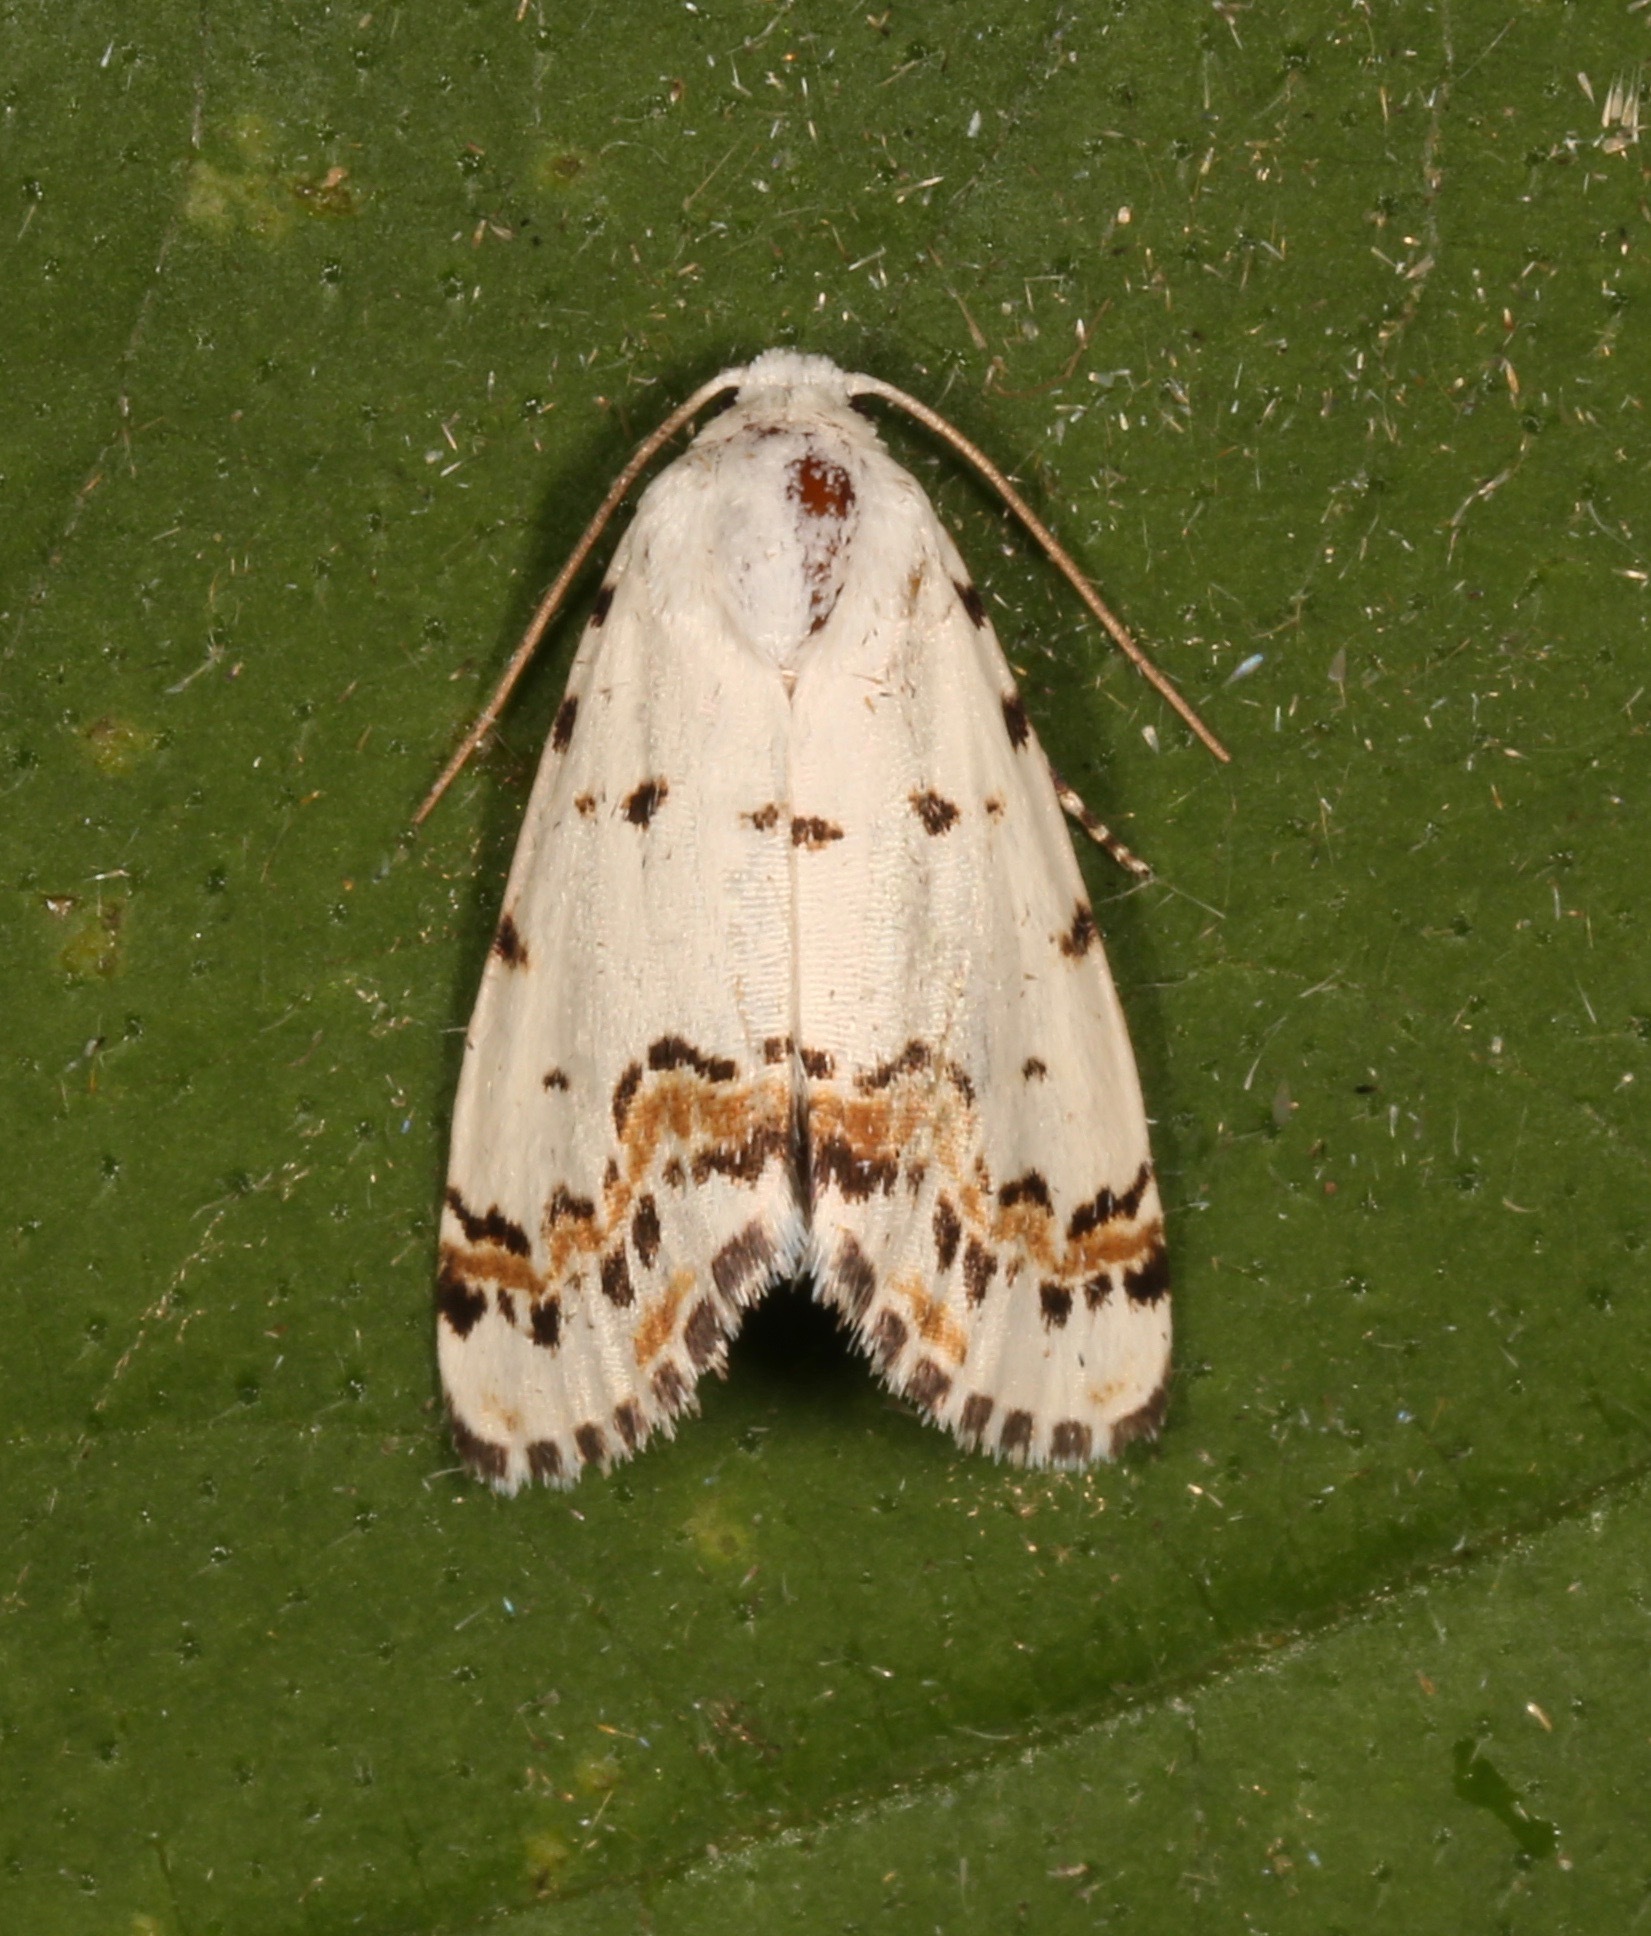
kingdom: Animalia
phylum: Arthropoda
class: Insecta
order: Lepidoptera
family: Noctuidae
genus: Grotella
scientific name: Grotella tricolor
